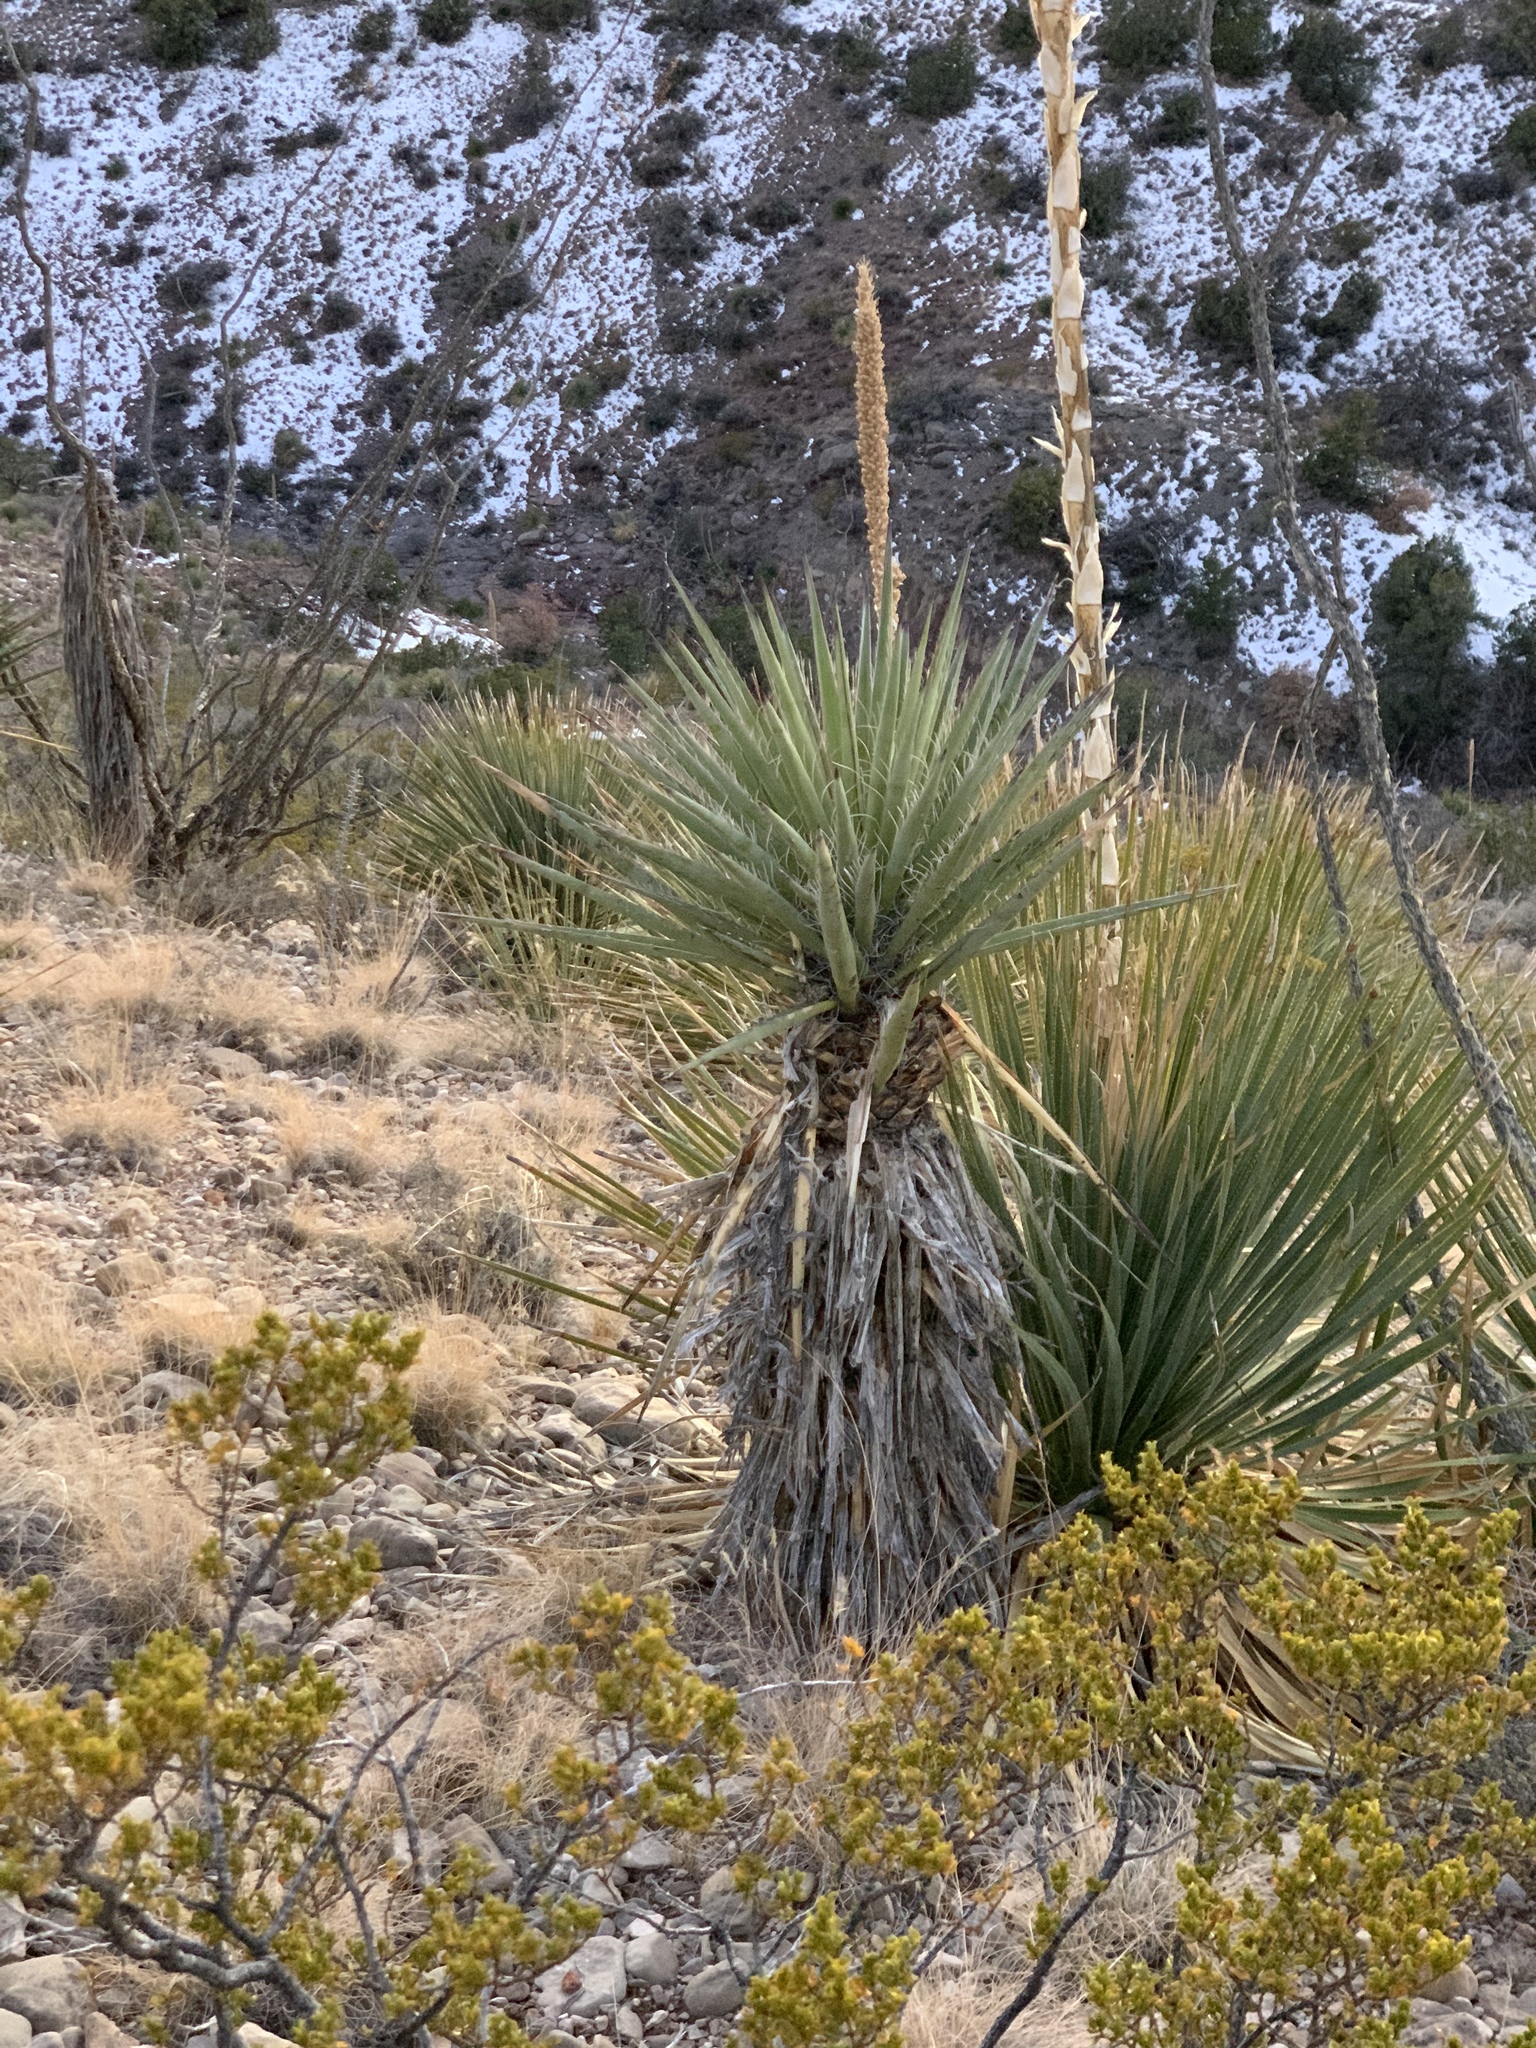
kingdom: Plantae
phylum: Tracheophyta
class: Liliopsida
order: Asparagales
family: Asparagaceae
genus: Yucca
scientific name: Yucca treculiana
